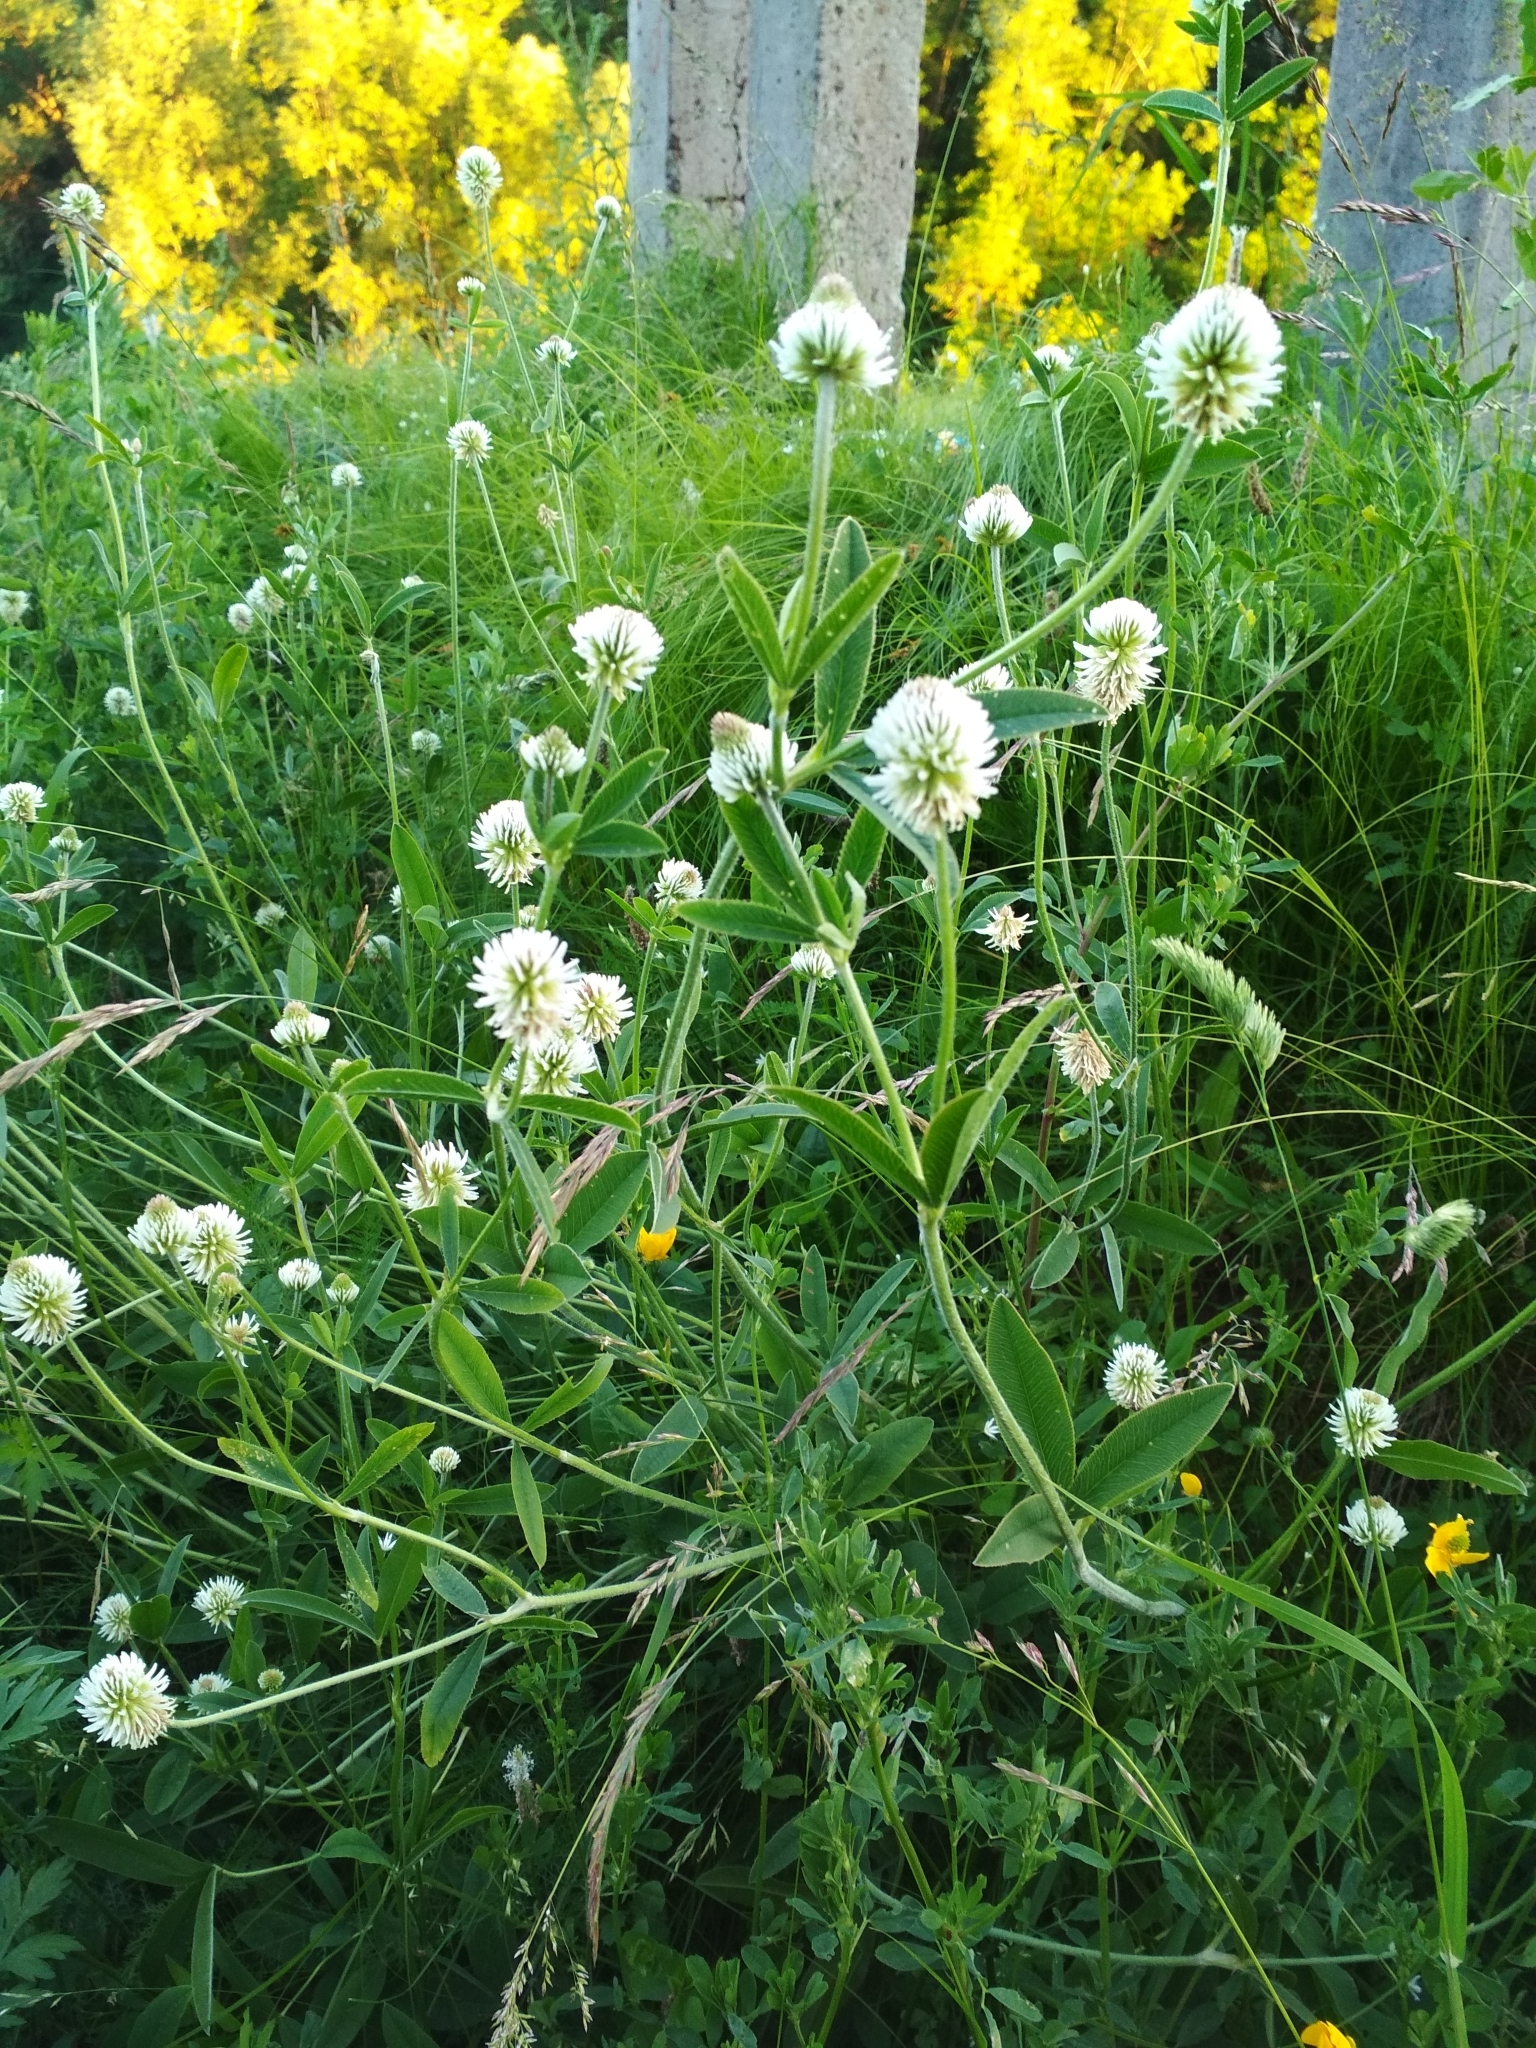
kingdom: Plantae
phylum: Tracheophyta
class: Magnoliopsida
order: Fabales
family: Fabaceae
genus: Trifolium
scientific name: Trifolium montanum
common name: Mountain clover
